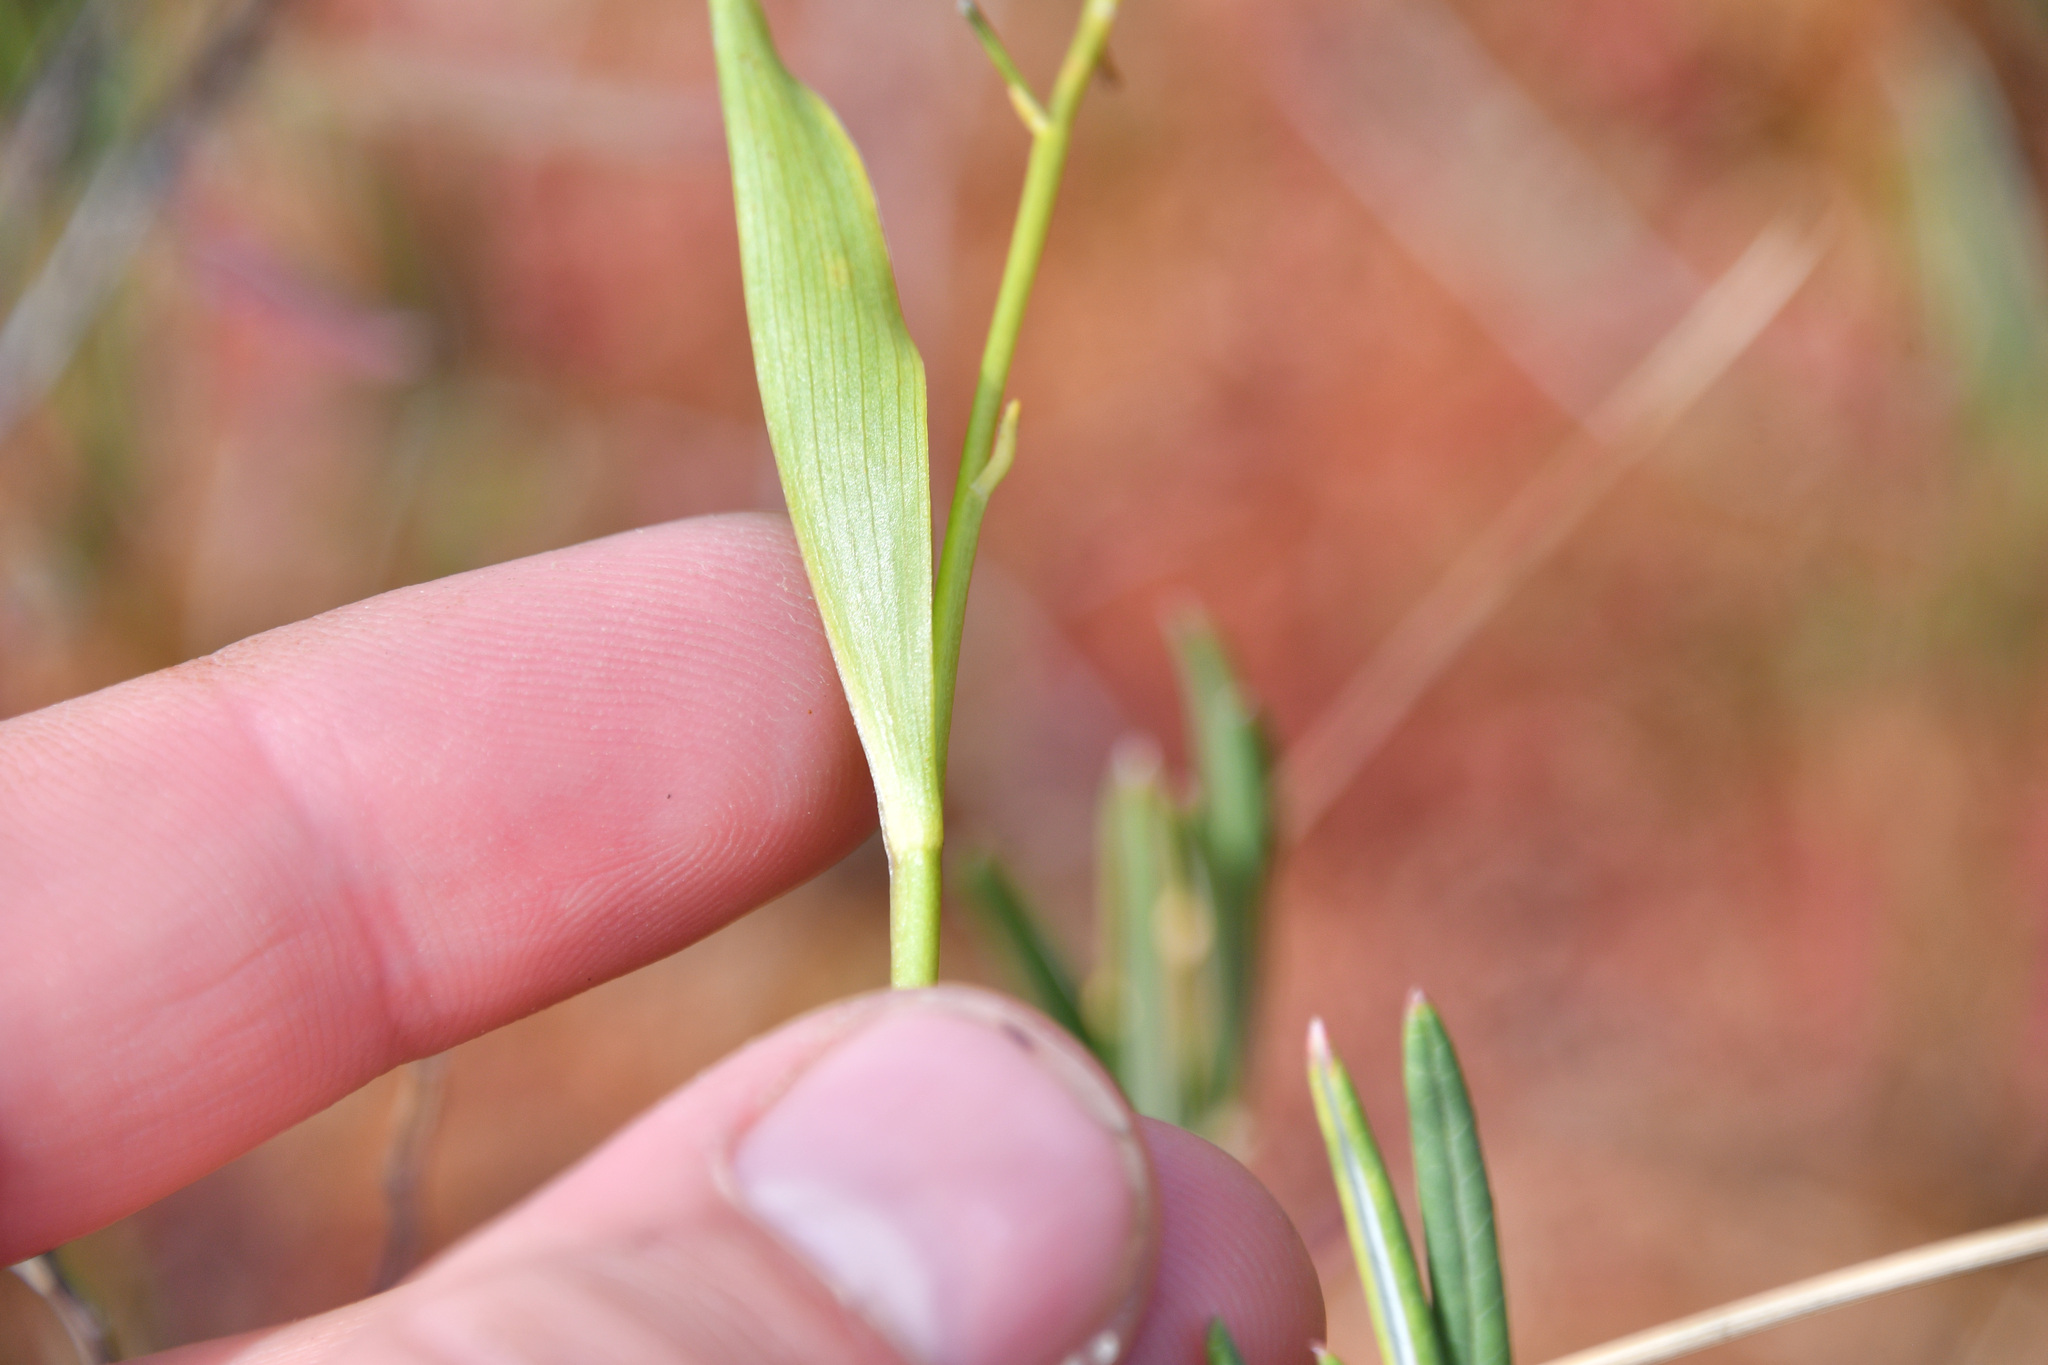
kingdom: Plantae
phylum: Tracheophyta
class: Liliopsida
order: Asparagales
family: Asparagaceae
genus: Maianthemum
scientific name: Maianthemum trifolium
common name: Swamp false solomon's seal
